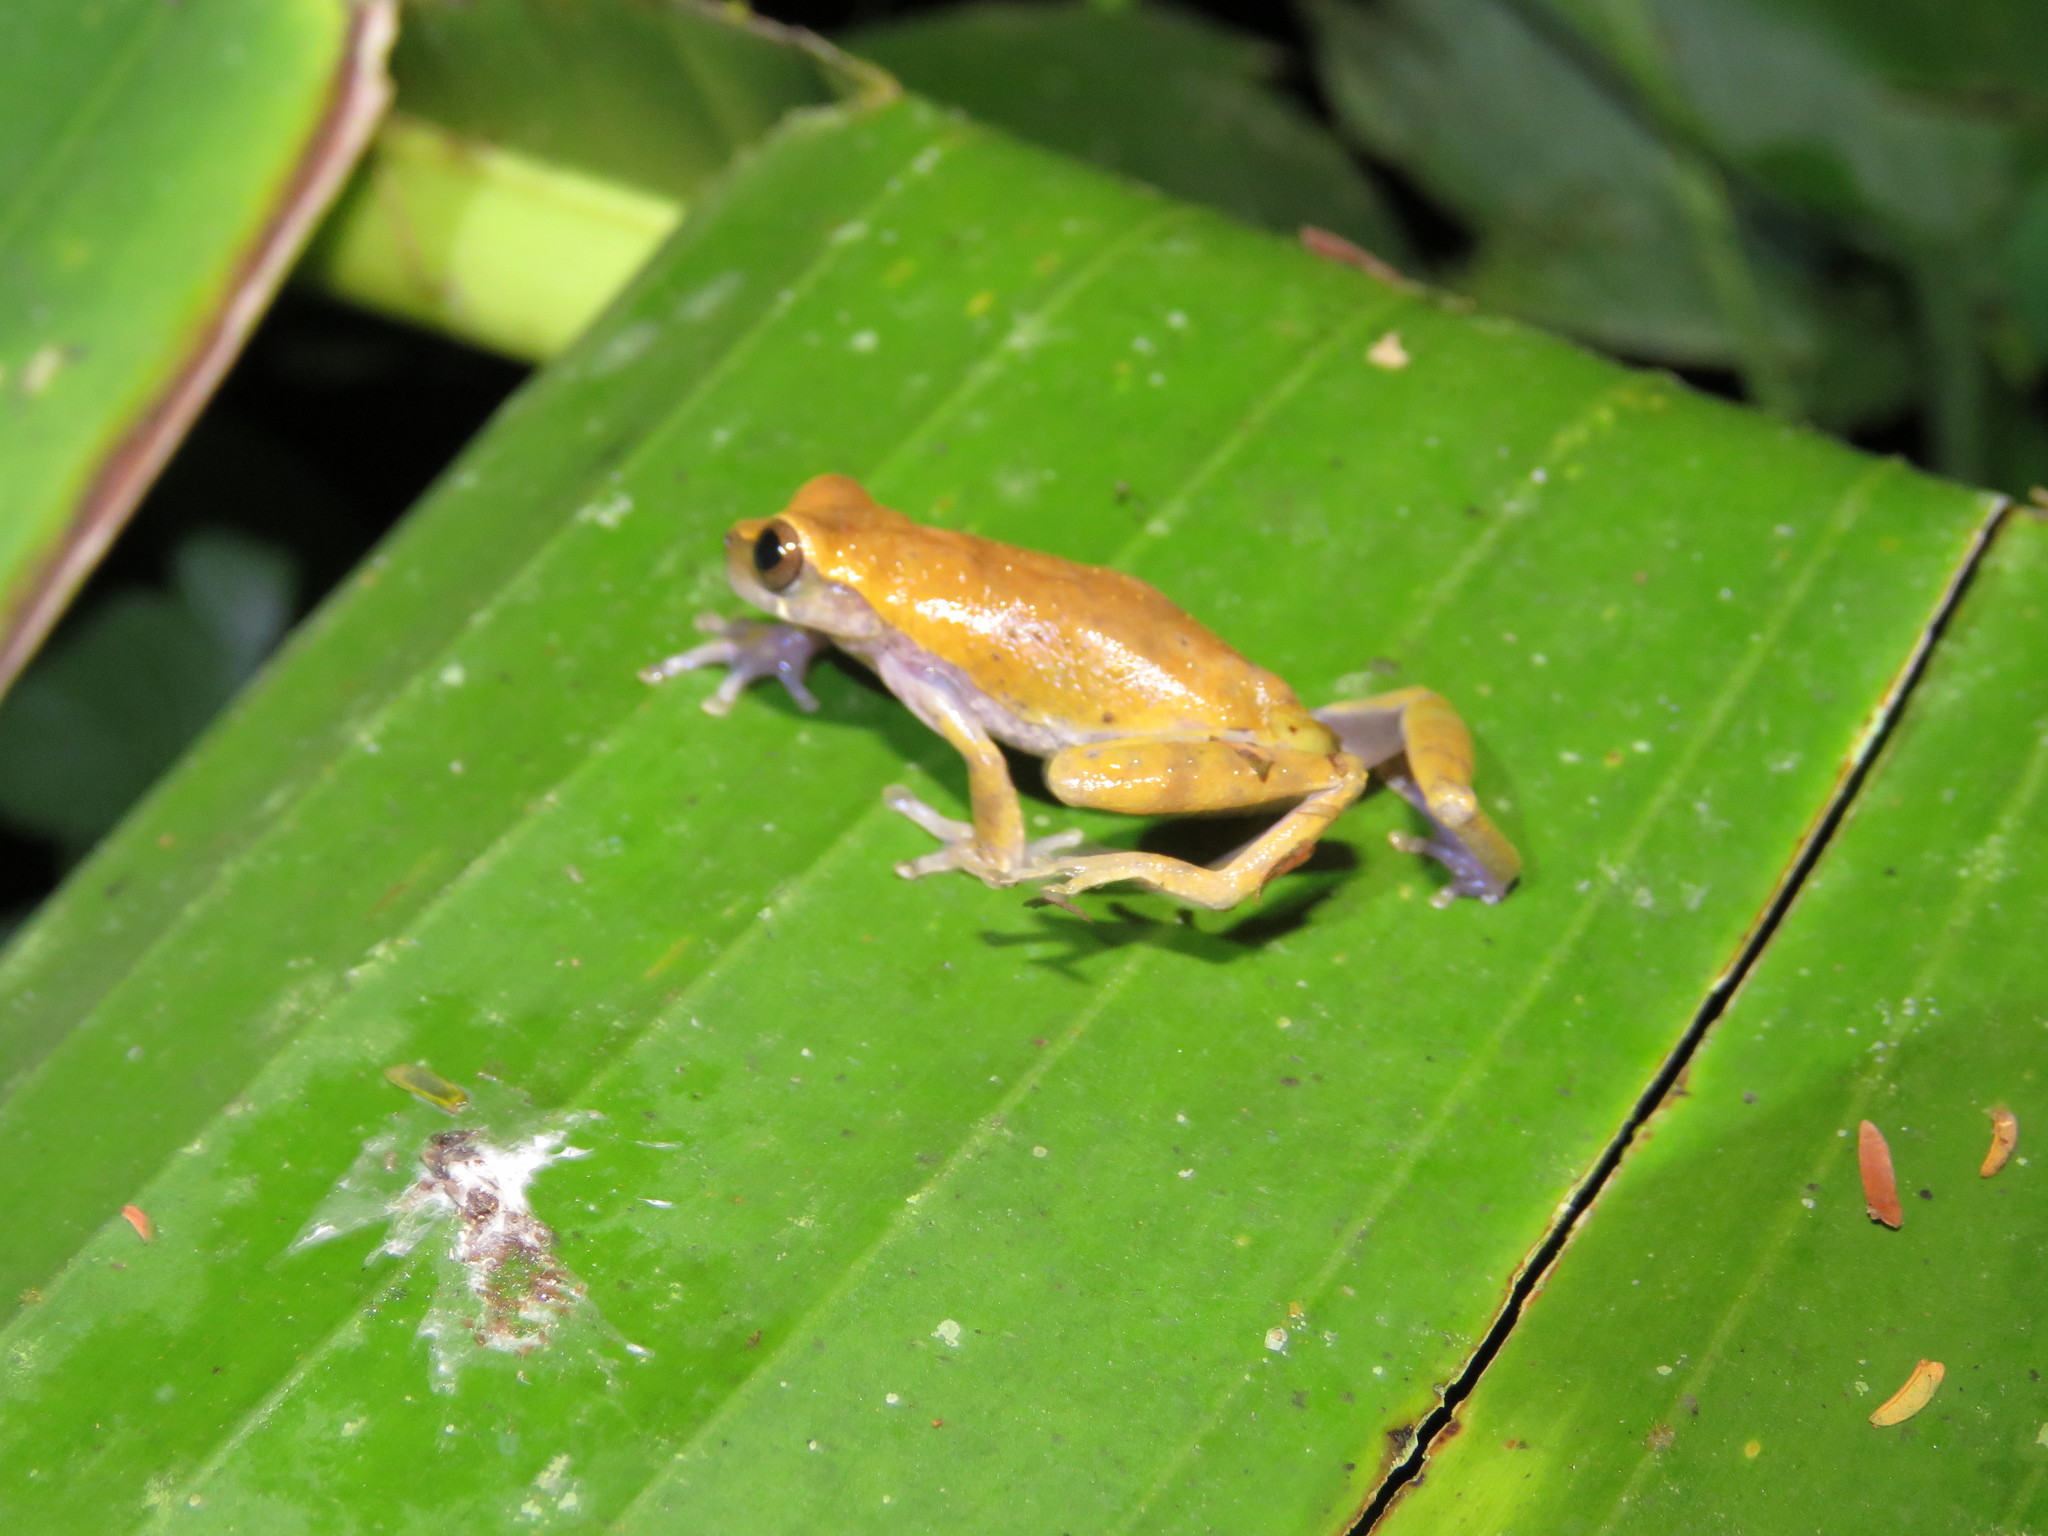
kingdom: Animalia
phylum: Chordata
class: Amphibia
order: Anura
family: Hylidae
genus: Dendropsophus
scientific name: Dendropsophus pauiniensis
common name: Pauini treefrog
